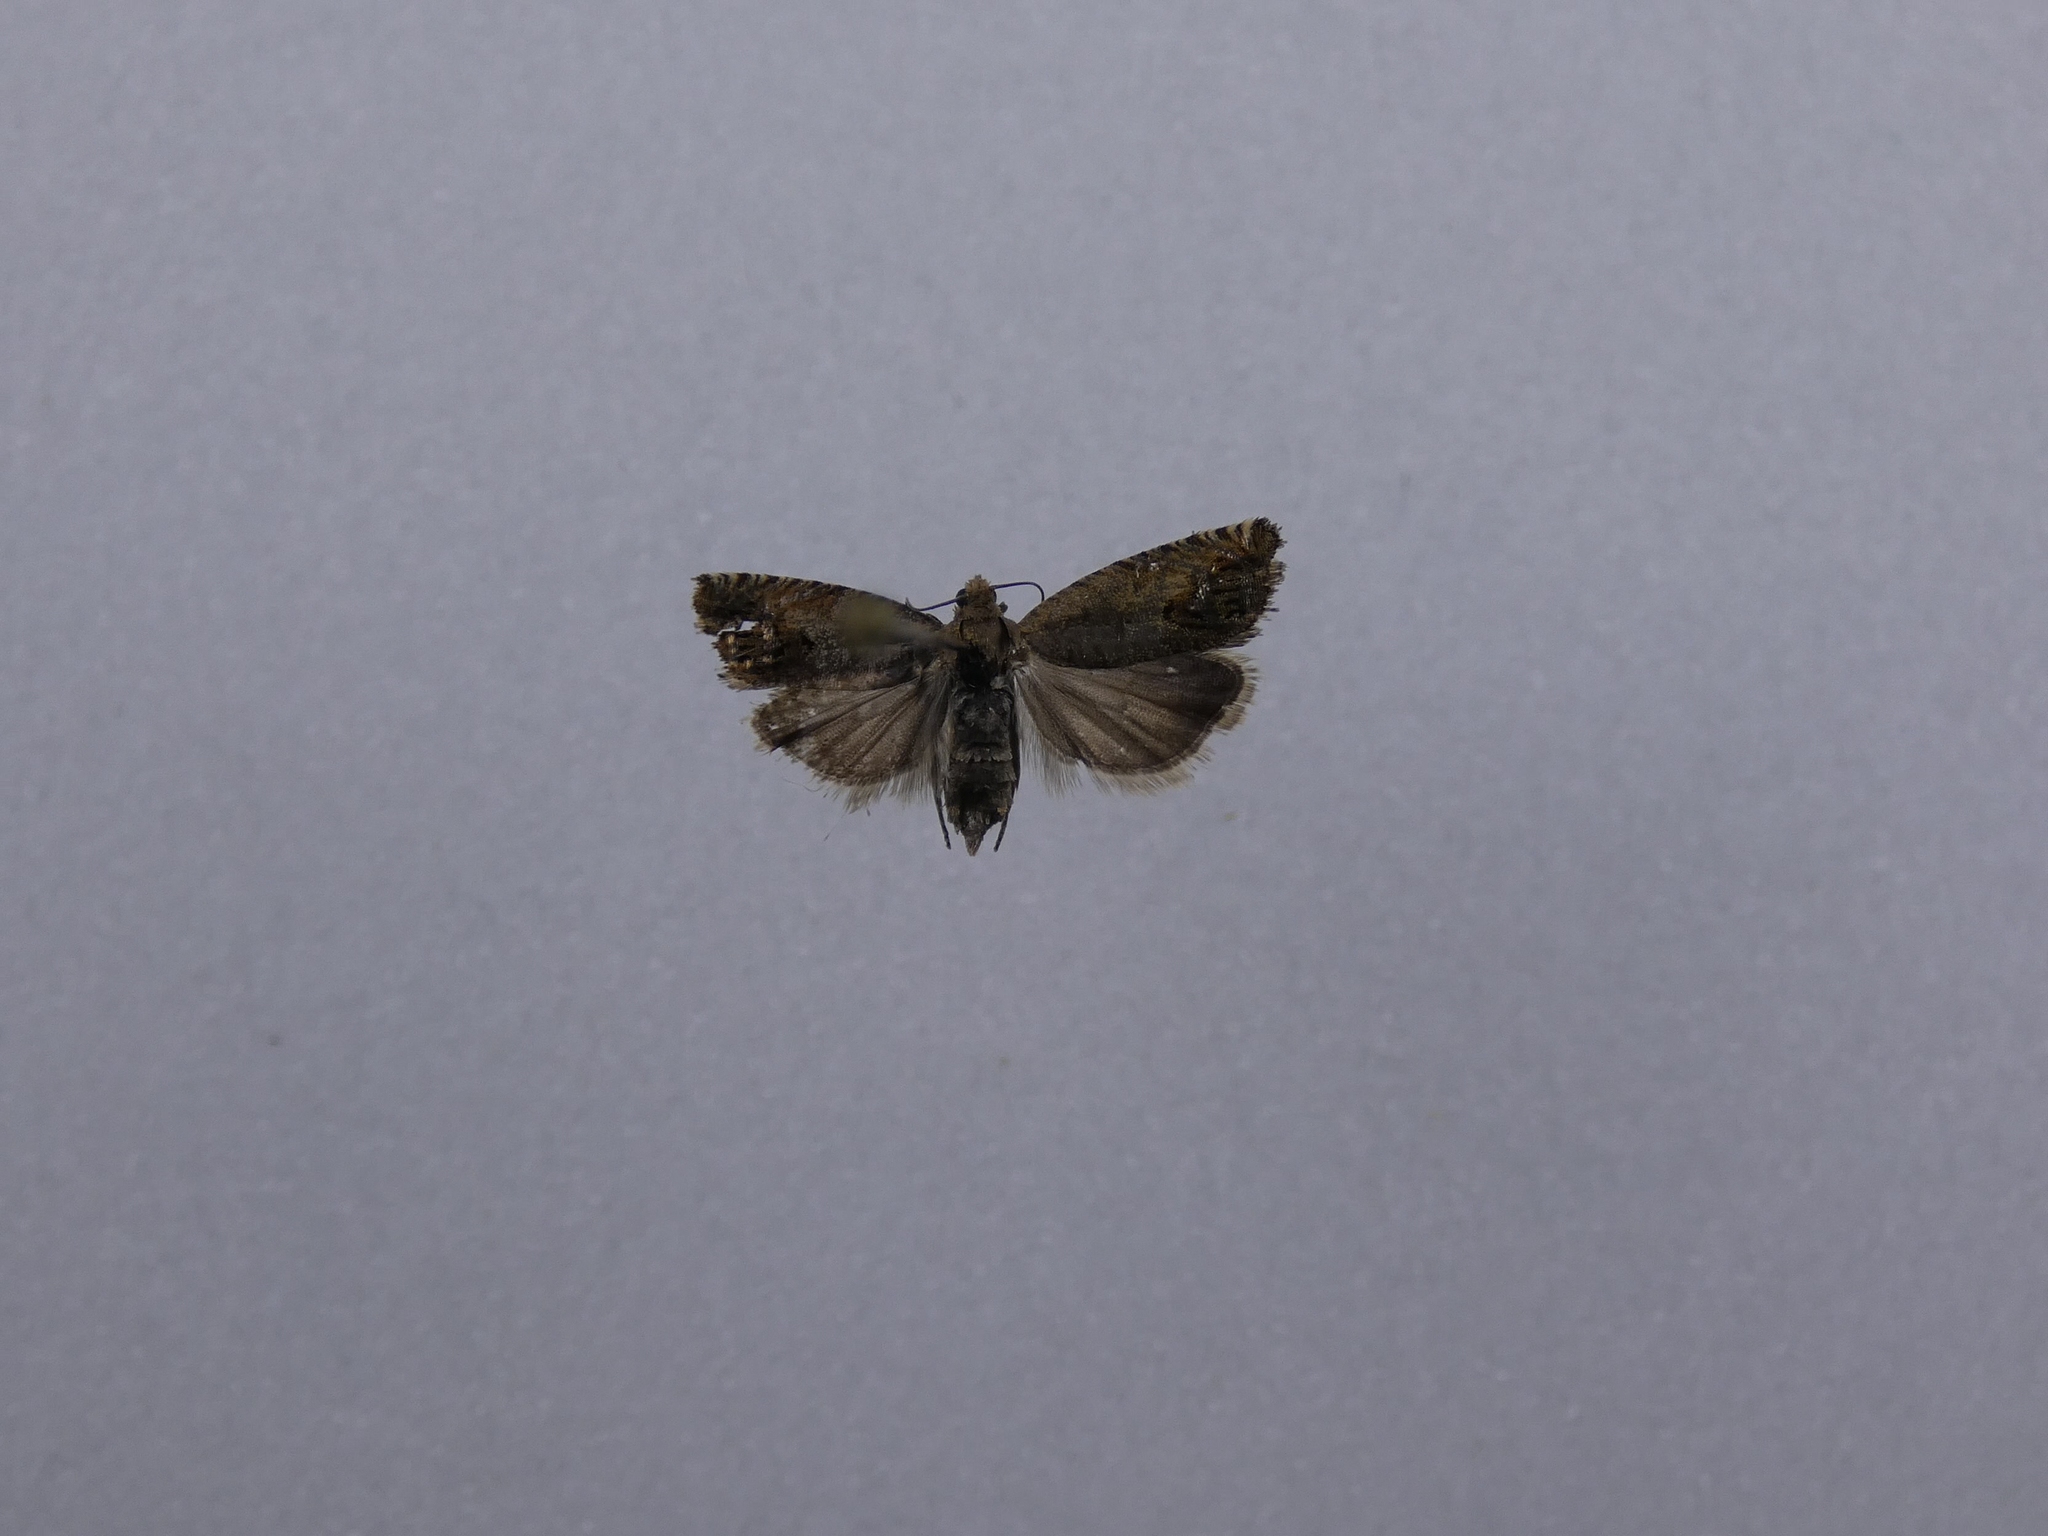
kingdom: Animalia
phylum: Arthropoda
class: Insecta
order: Lepidoptera
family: Tortricidae
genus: Cydia
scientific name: Cydia succedana
